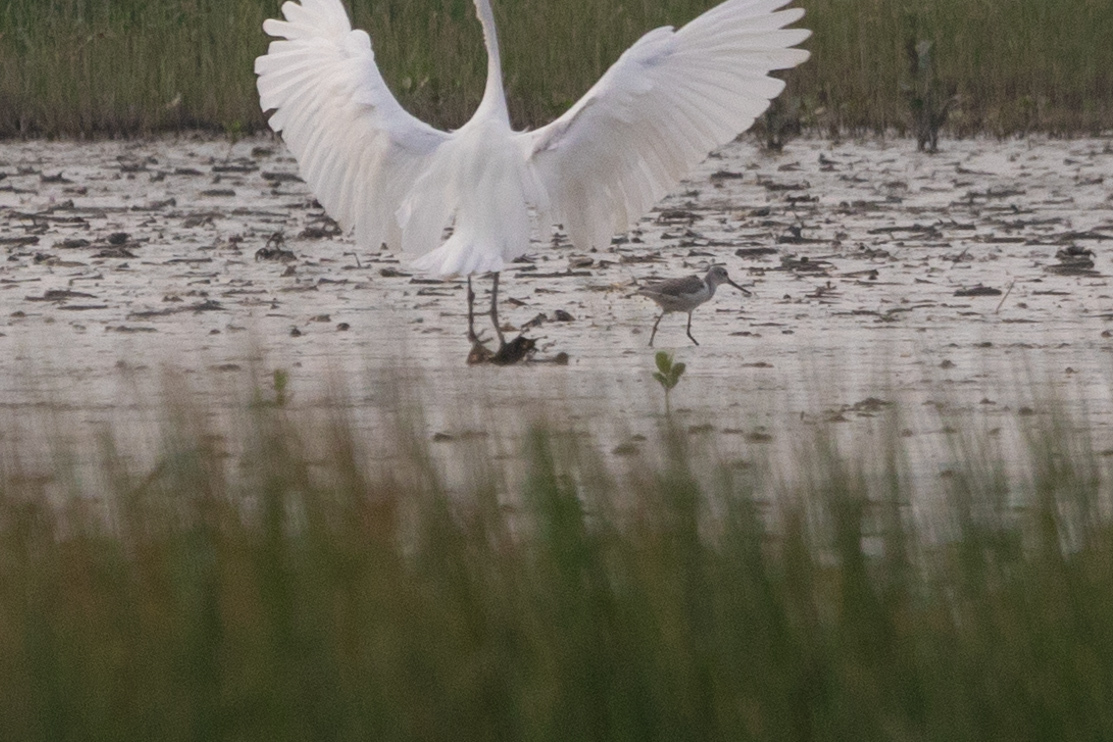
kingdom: Animalia
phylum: Chordata
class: Aves
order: Charadriiformes
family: Scolopacidae
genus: Tringa
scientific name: Tringa nebularia
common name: Common greenshank
